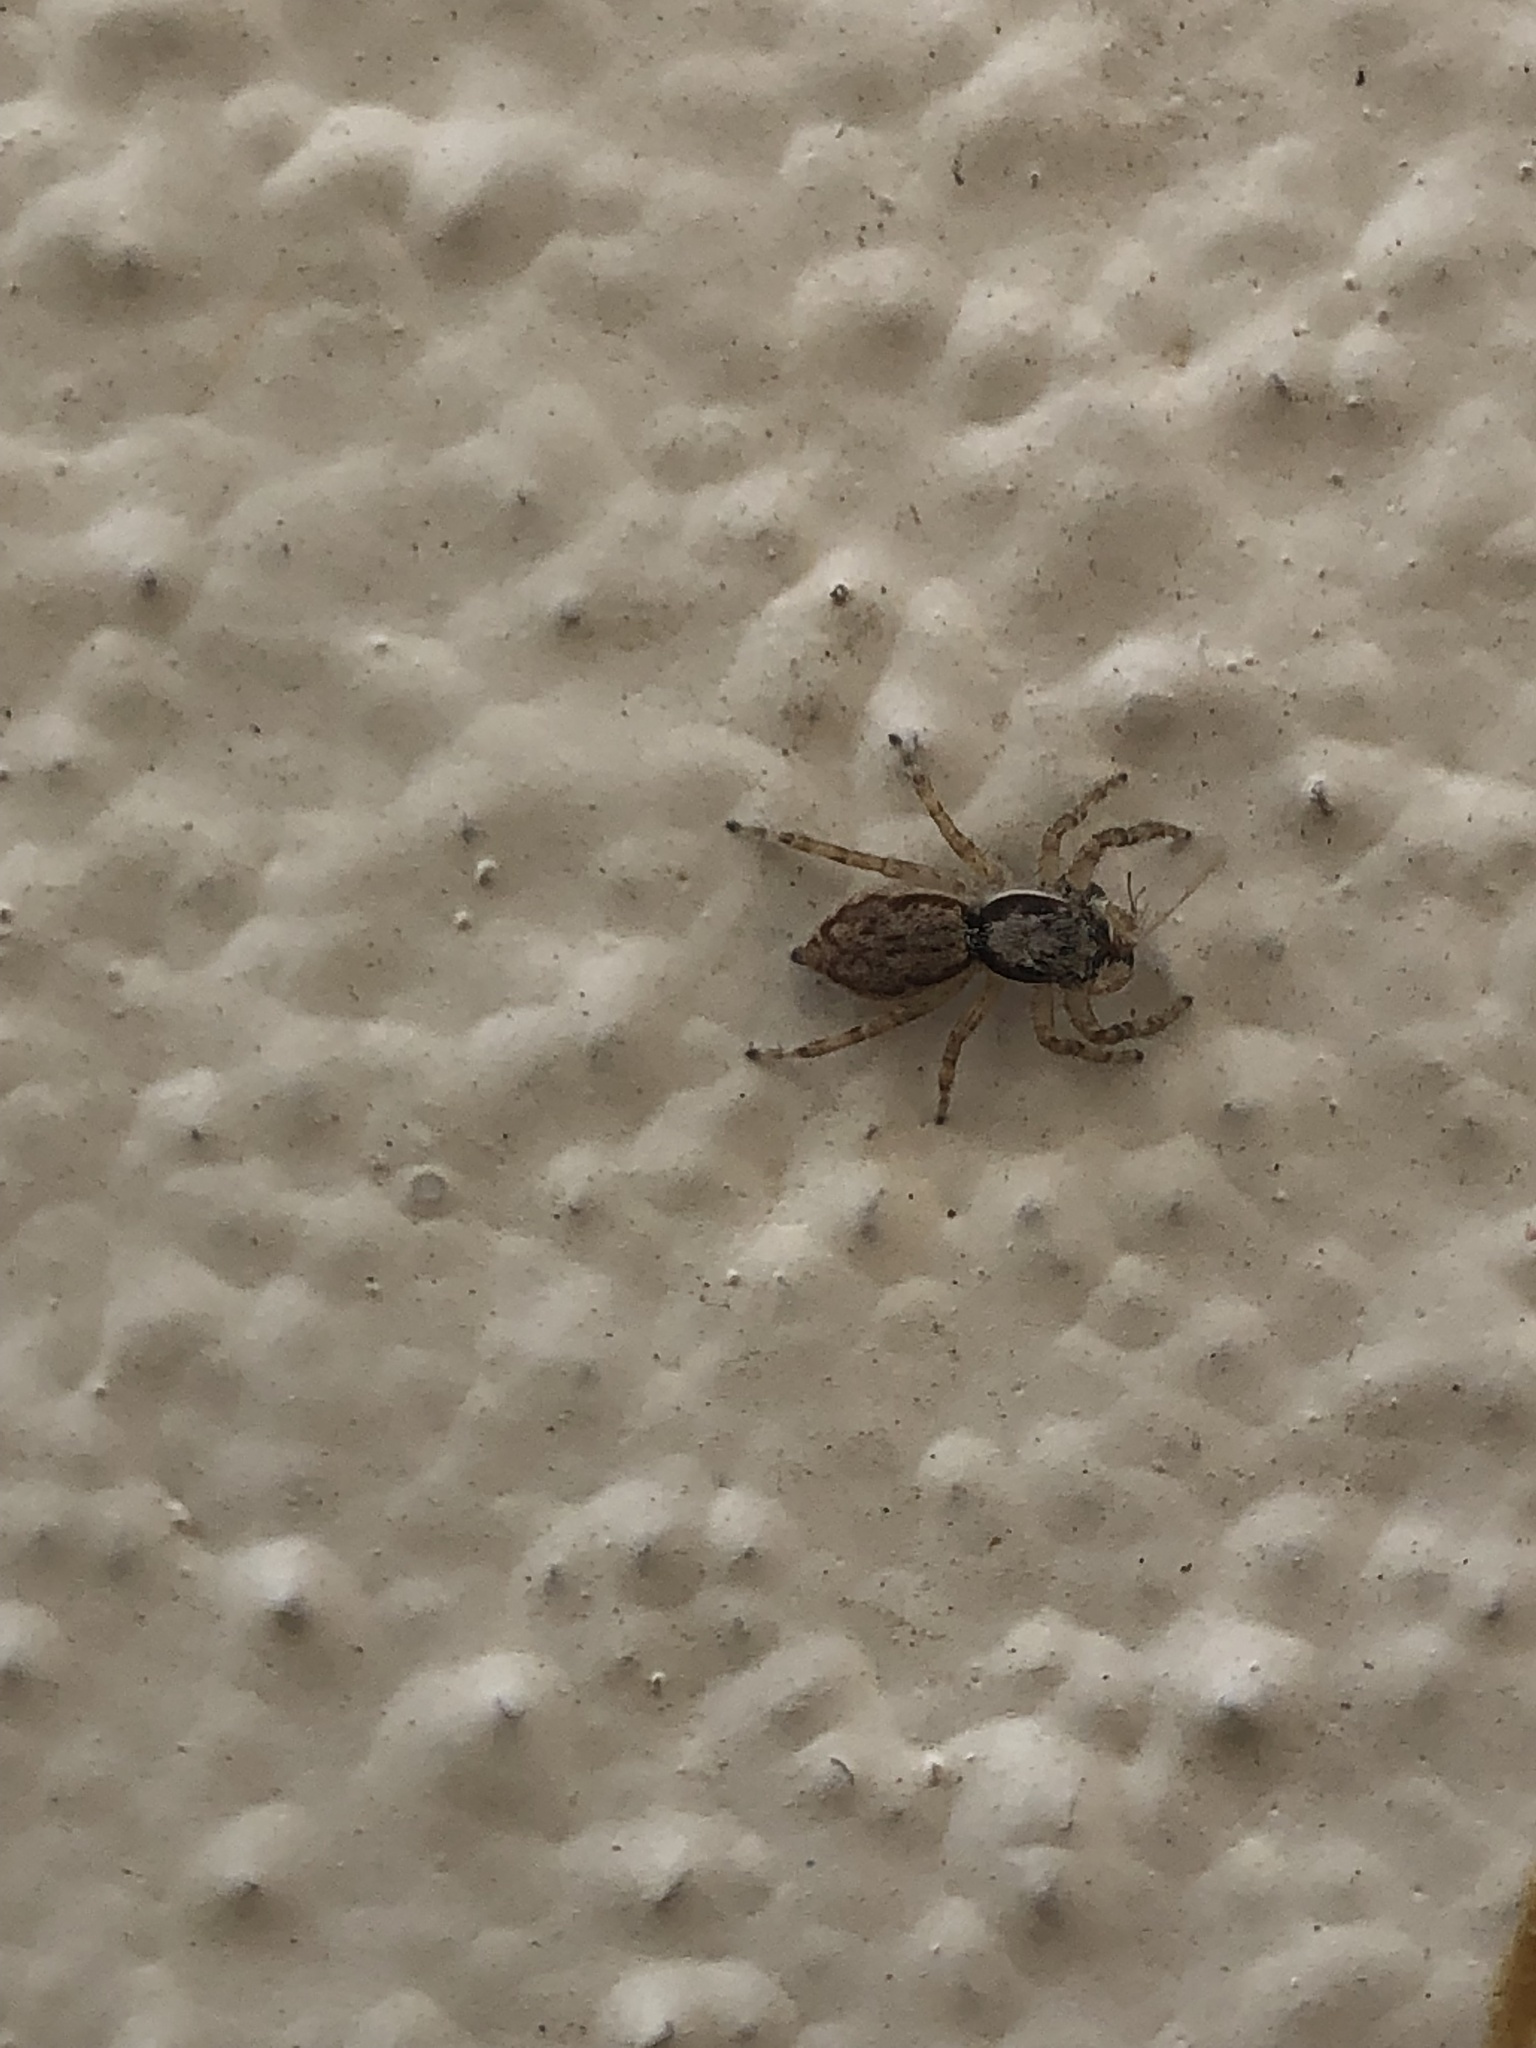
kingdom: Animalia
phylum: Arthropoda
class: Arachnida
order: Araneae
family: Salticidae
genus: Menemerus
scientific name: Menemerus bivittatus
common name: Gray wall jumper
